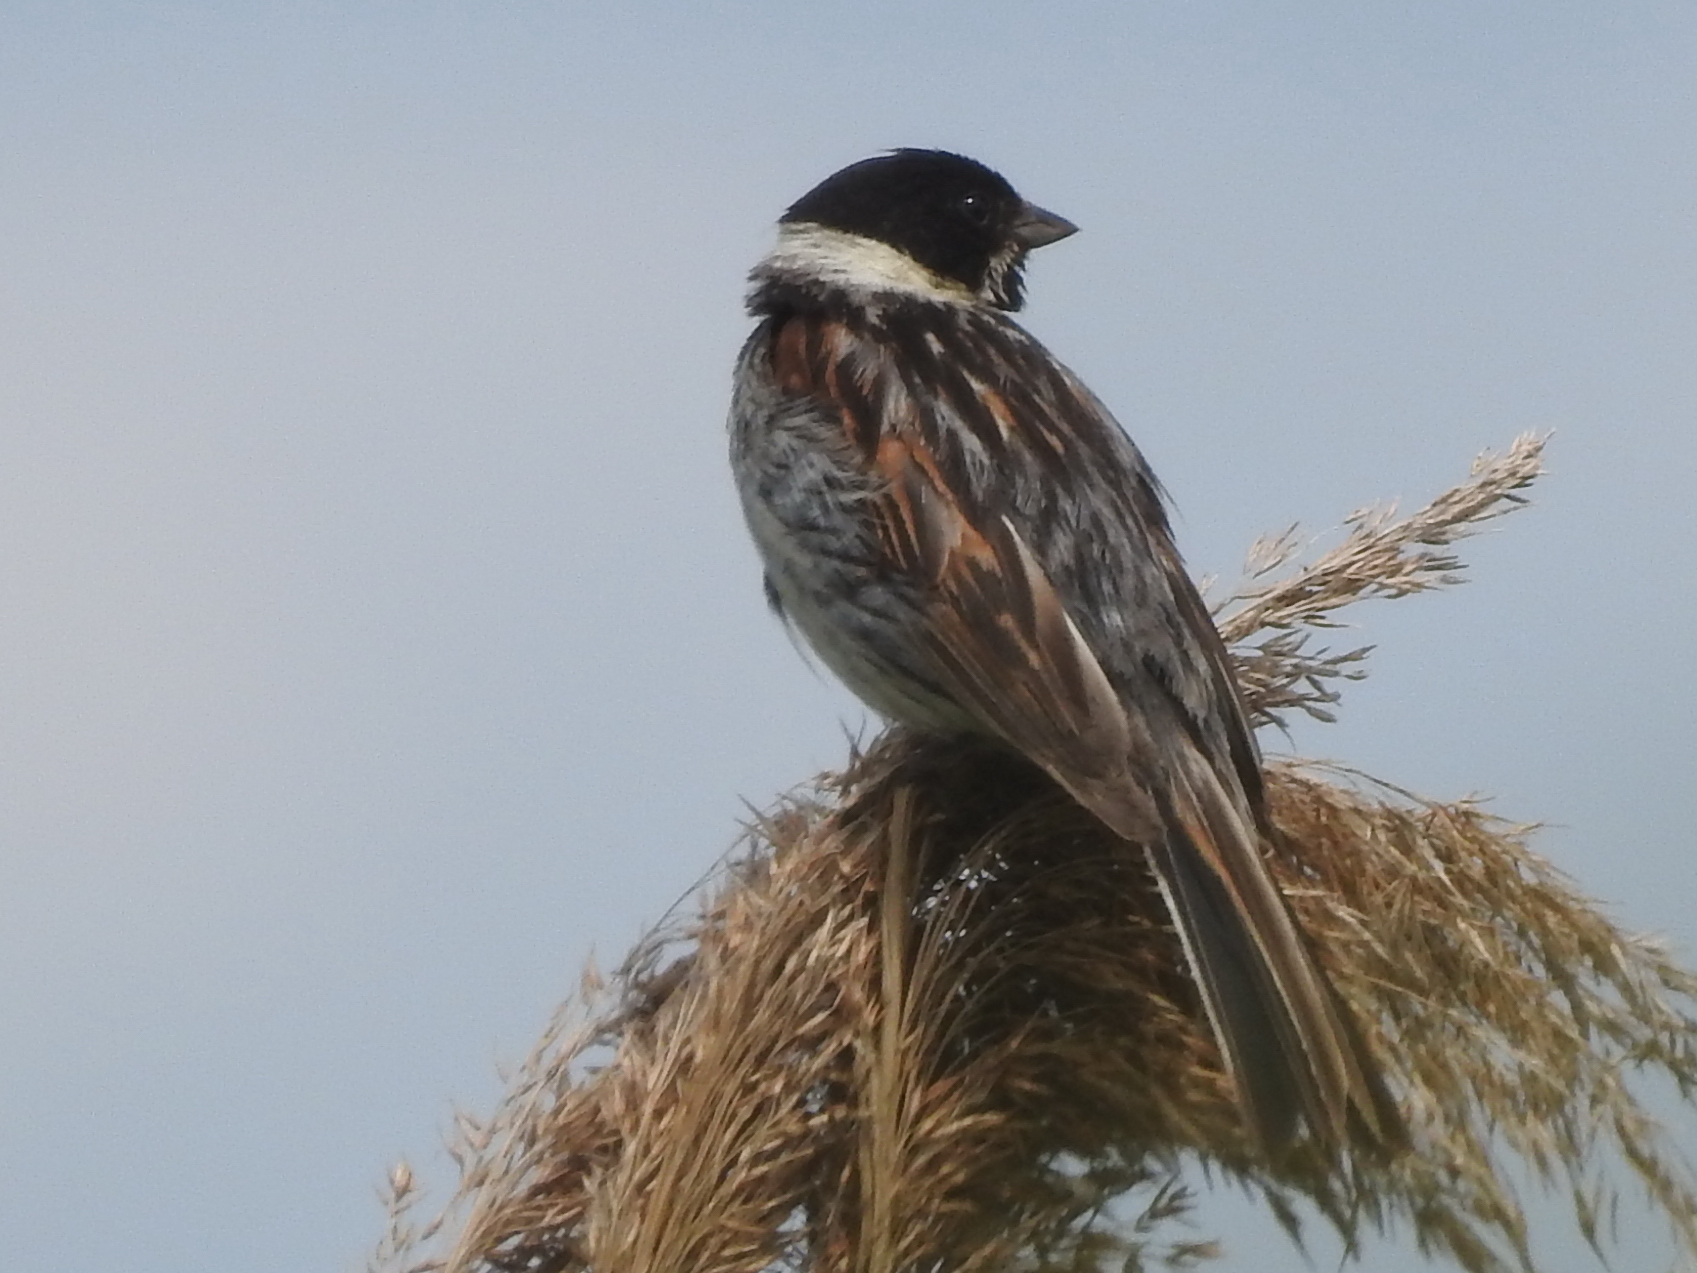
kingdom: Animalia
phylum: Chordata
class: Aves
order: Passeriformes
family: Emberizidae
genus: Emberiza
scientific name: Emberiza schoeniclus
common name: Reed bunting
